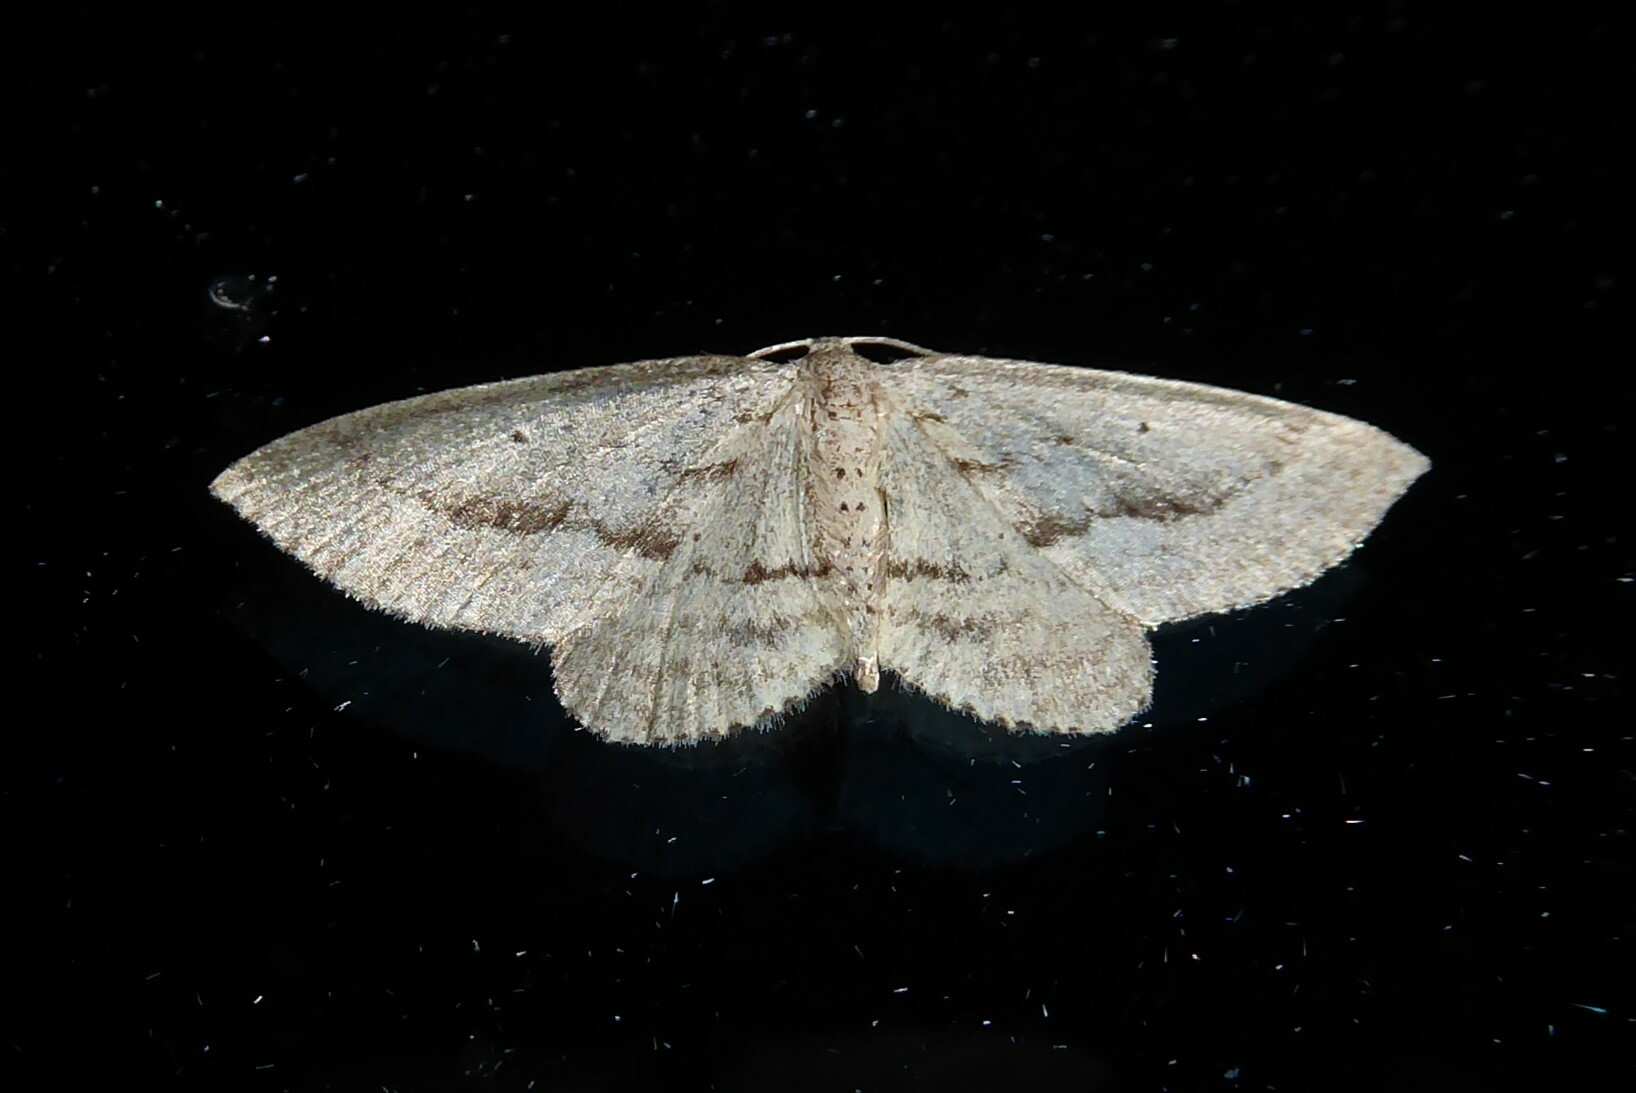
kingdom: Animalia
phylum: Arthropoda
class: Insecta
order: Lepidoptera
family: Geometridae
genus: Poecilasthena
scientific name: Poecilasthena schistaria
